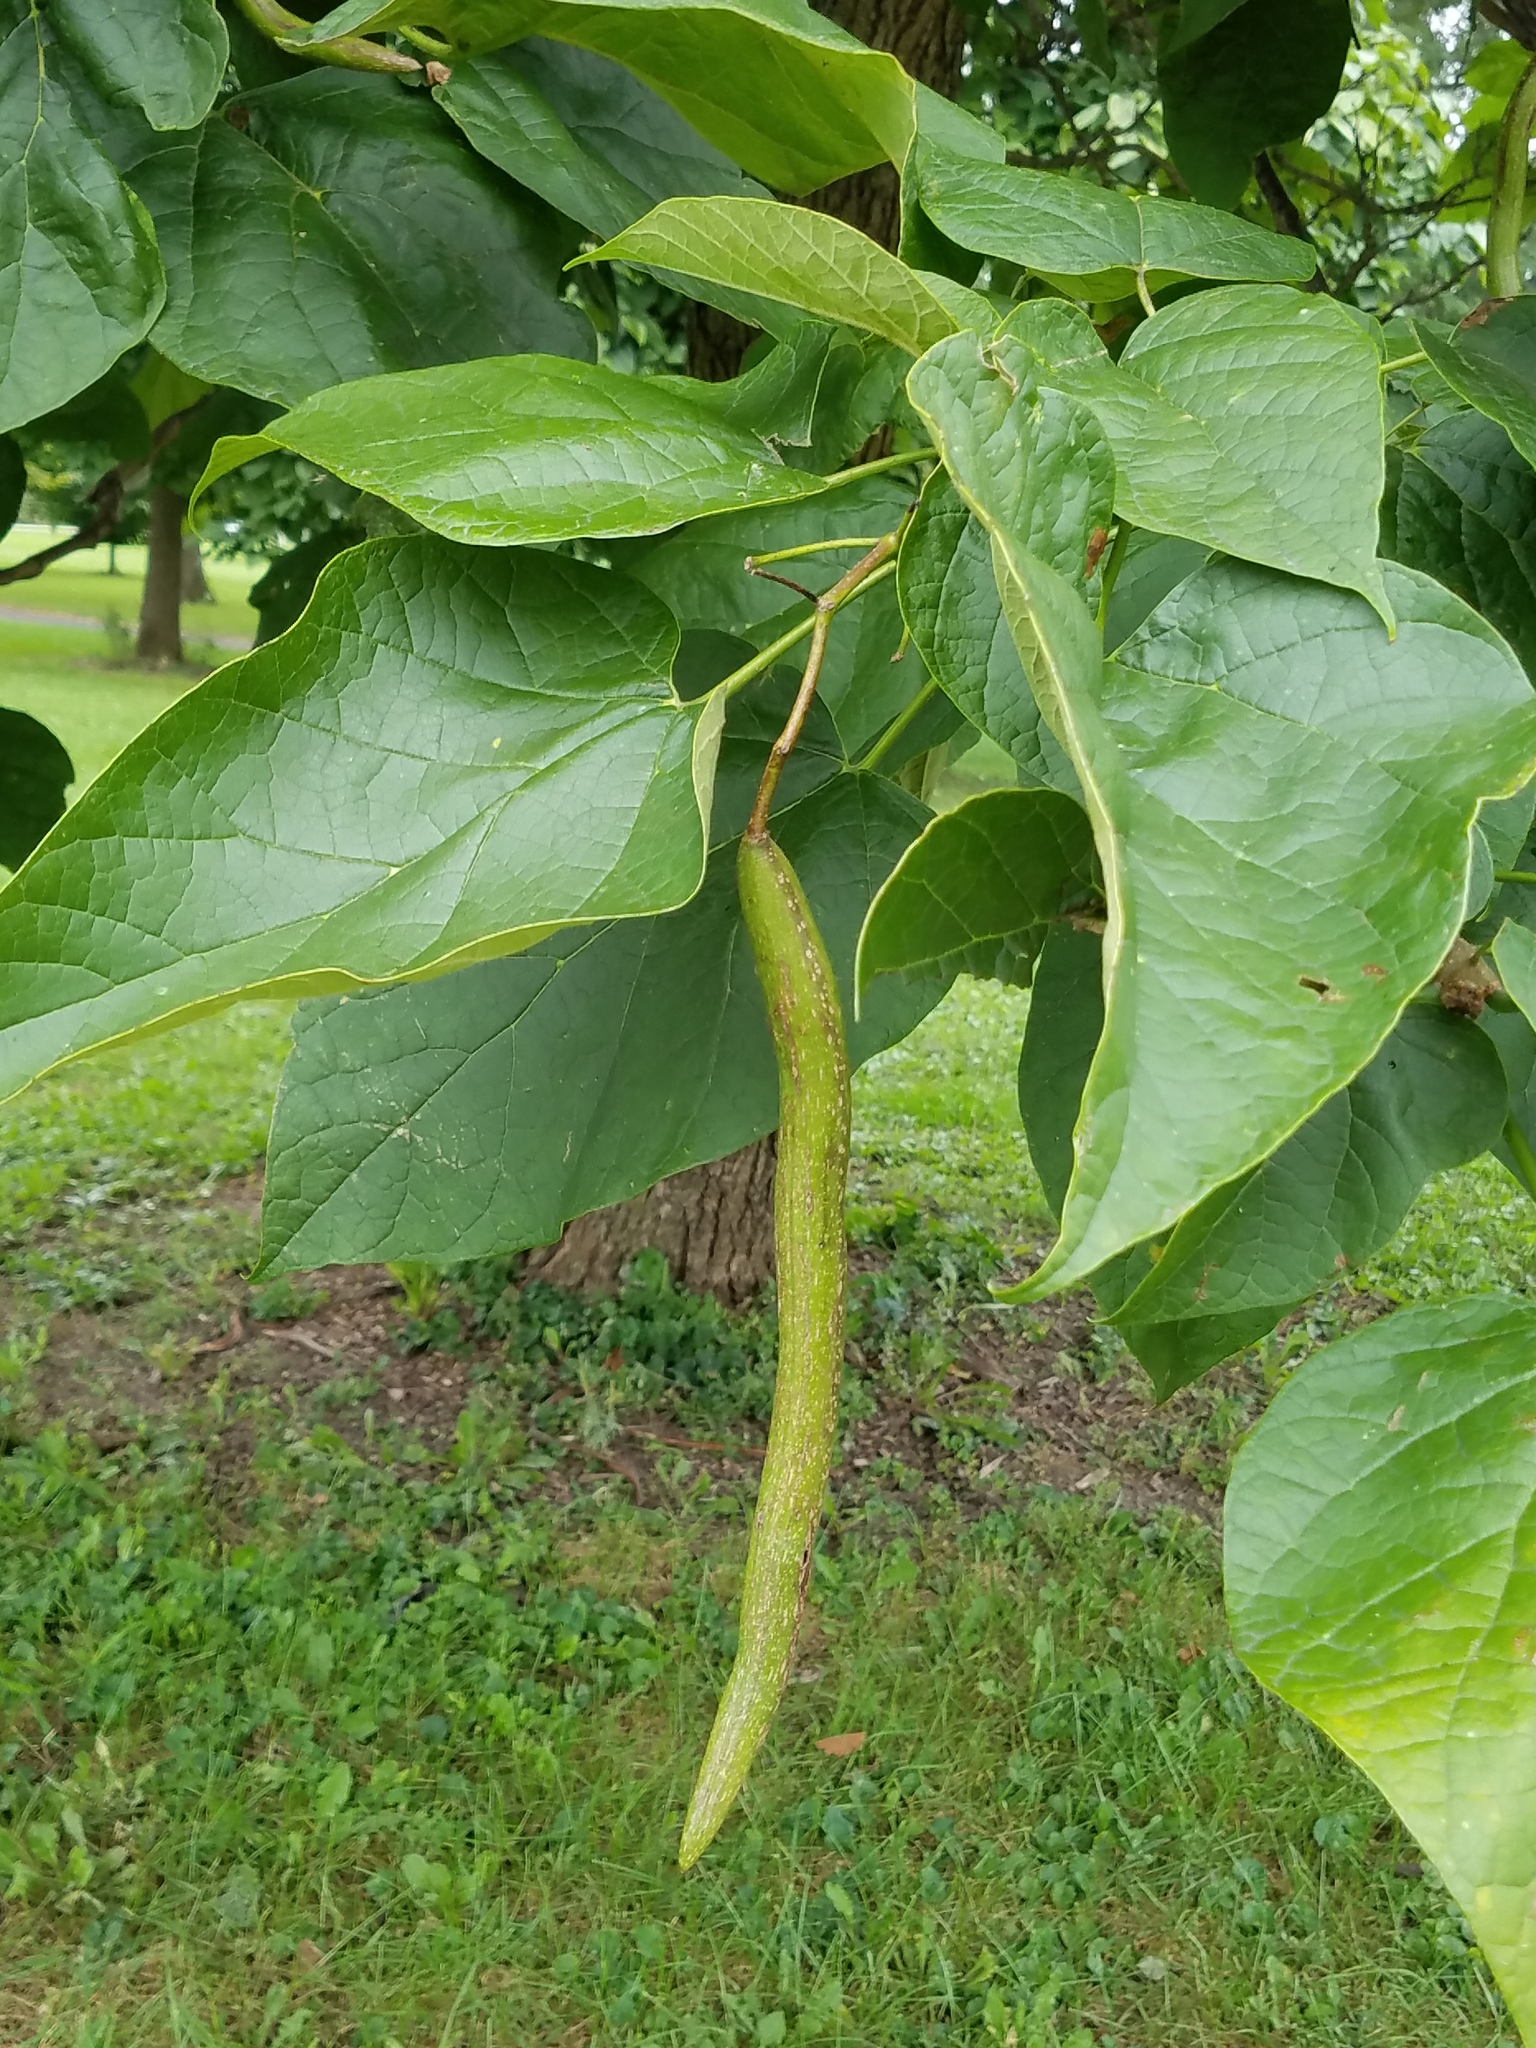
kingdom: Plantae
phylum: Tracheophyta
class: Magnoliopsida
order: Lamiales
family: Bignoniaceae
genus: Catalpa
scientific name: Catalpa speciosa
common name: Northern catalpa
